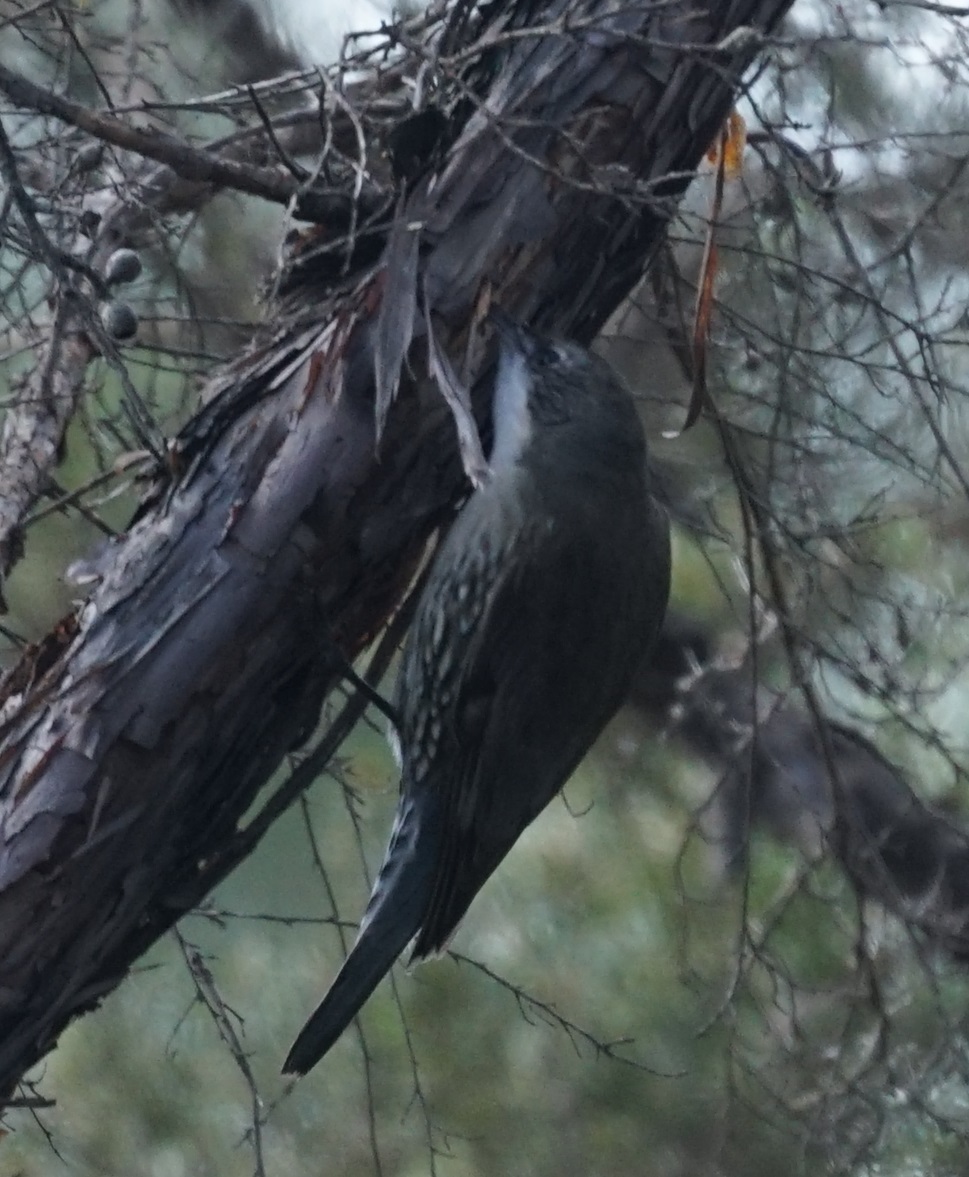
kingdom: Animalia
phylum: Chordata
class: Aves
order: Passeriformes
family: Climacteridae
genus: Cormobates
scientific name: Cormobates leucophaea
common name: White-throated treecreeper
